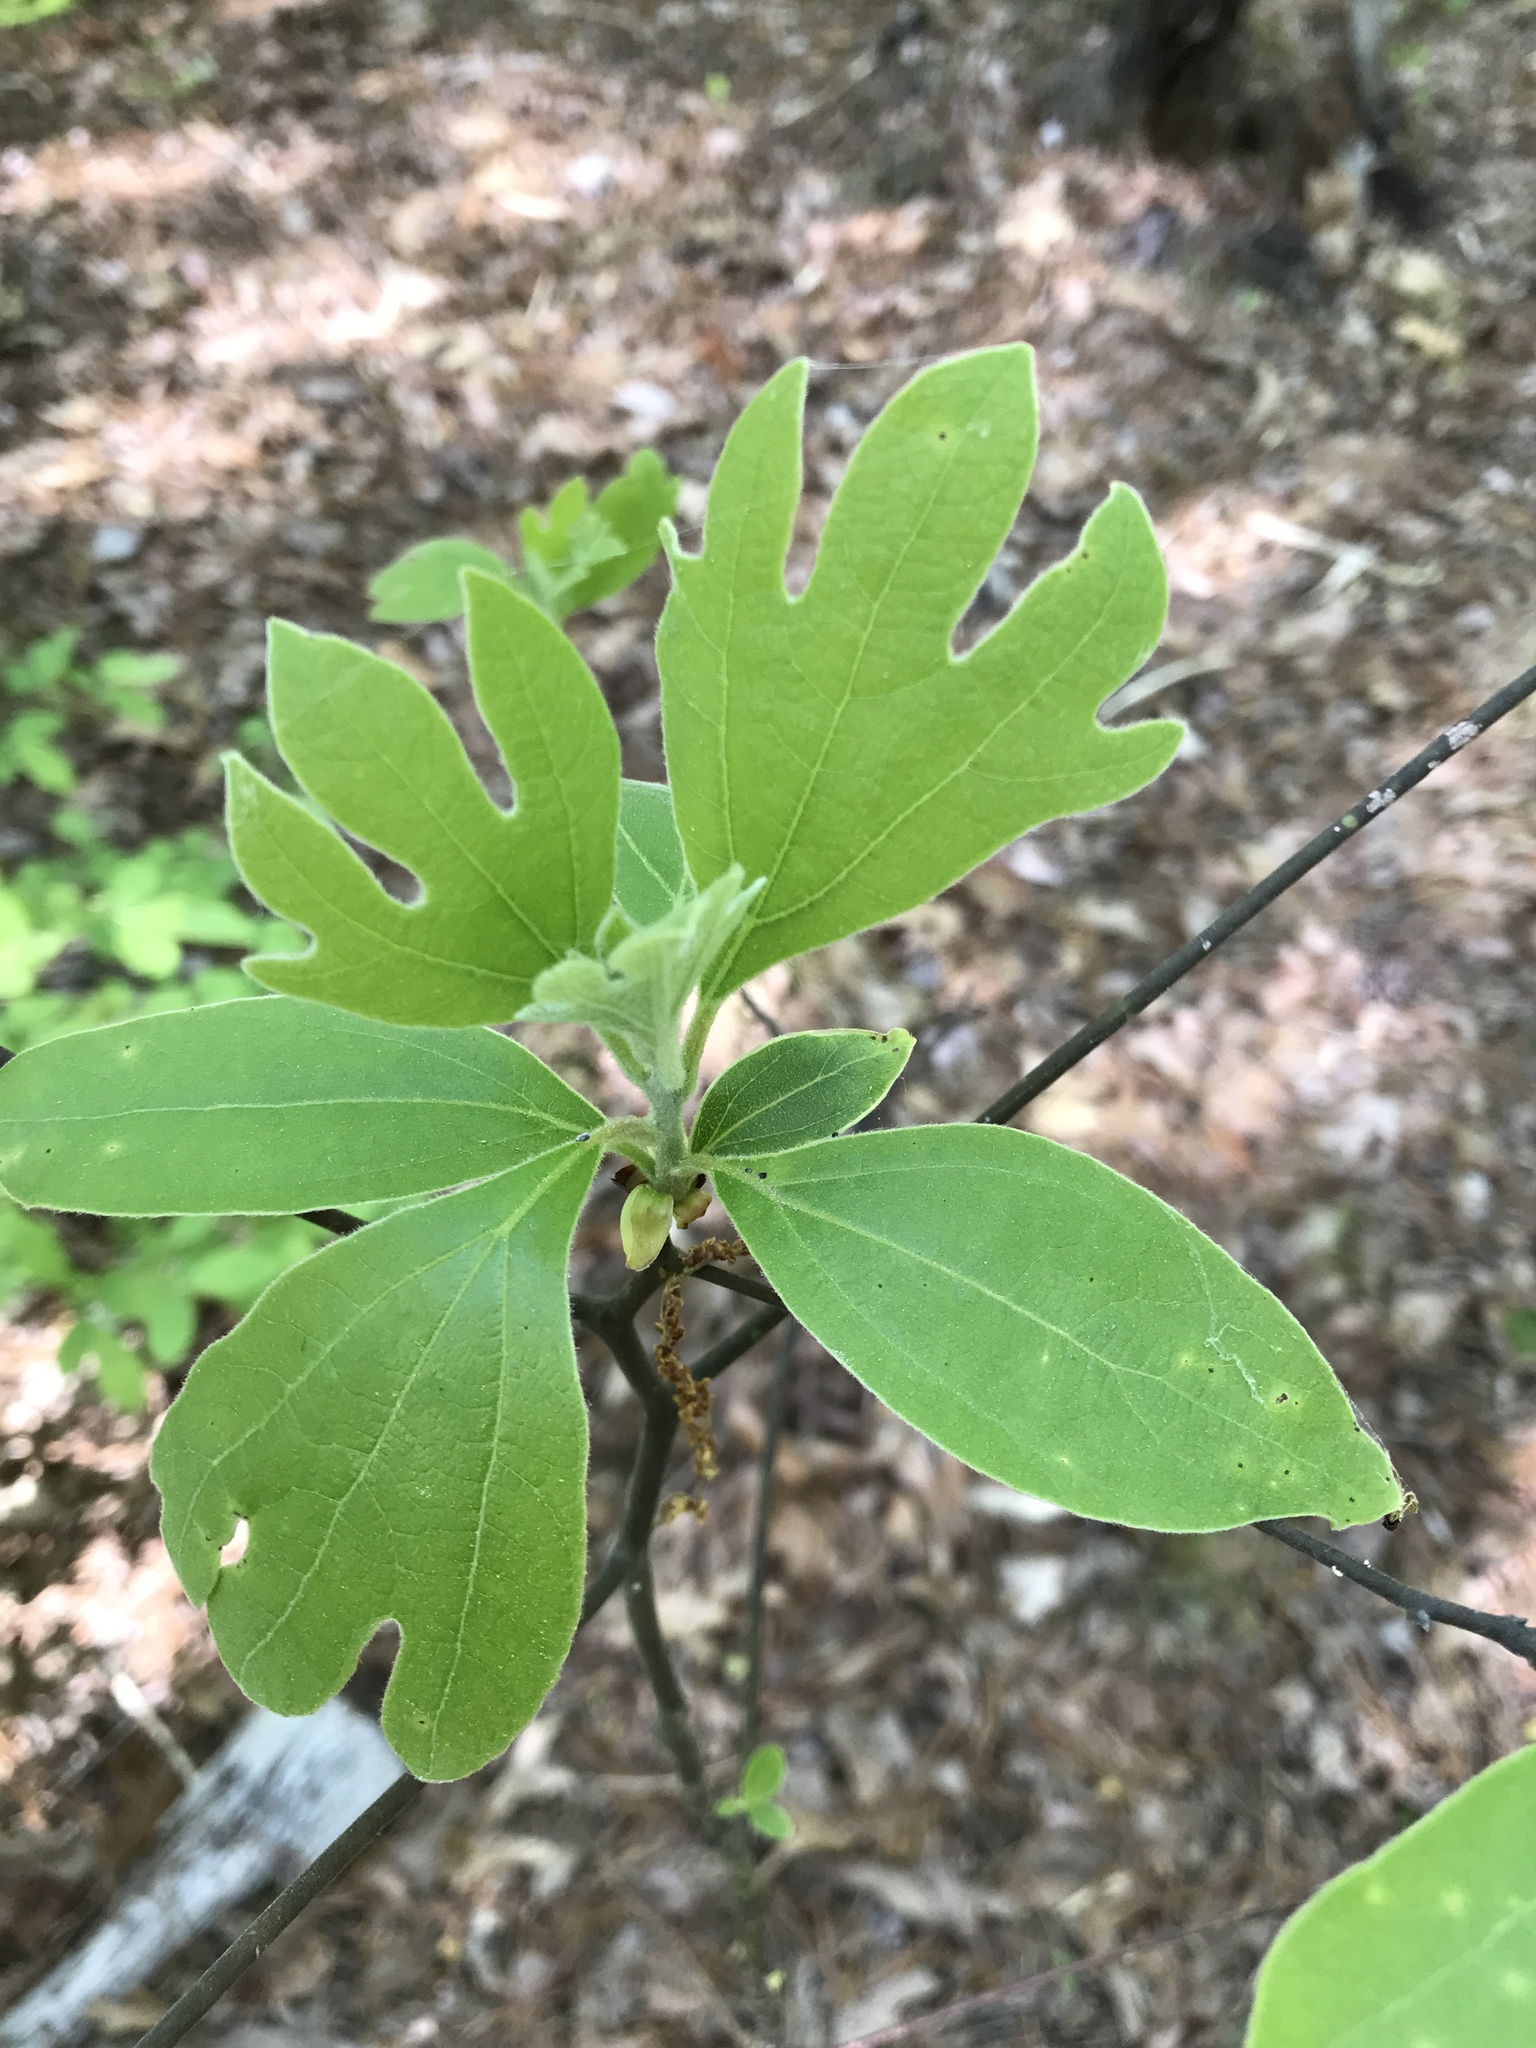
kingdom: Plantae
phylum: Tracheophyta
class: Magnoliopsida
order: Laurales
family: Lauraceae
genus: Sassafras
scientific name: Sassafras albidum
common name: Sassafras
